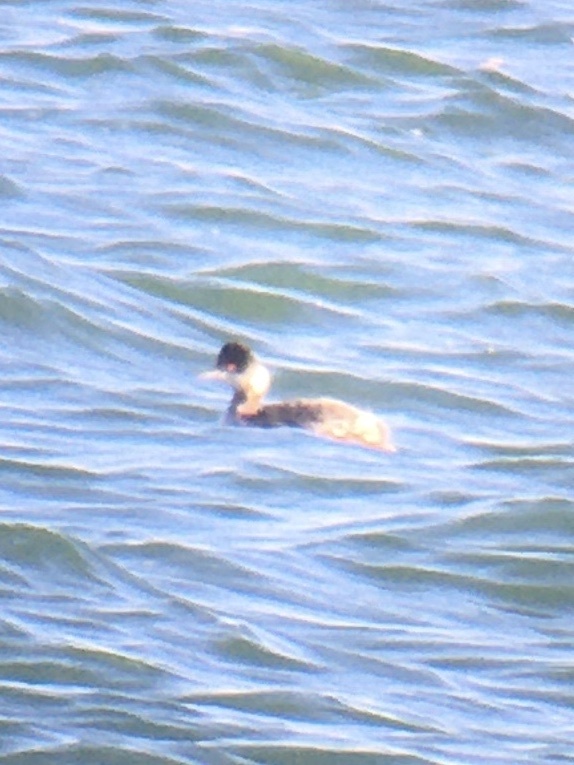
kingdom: Animalia
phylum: Chordata
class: Aves
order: Podicipediformes
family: Podicipedidae
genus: Podiceps
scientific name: Podiceps nigricollis
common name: Black-necked grebe
